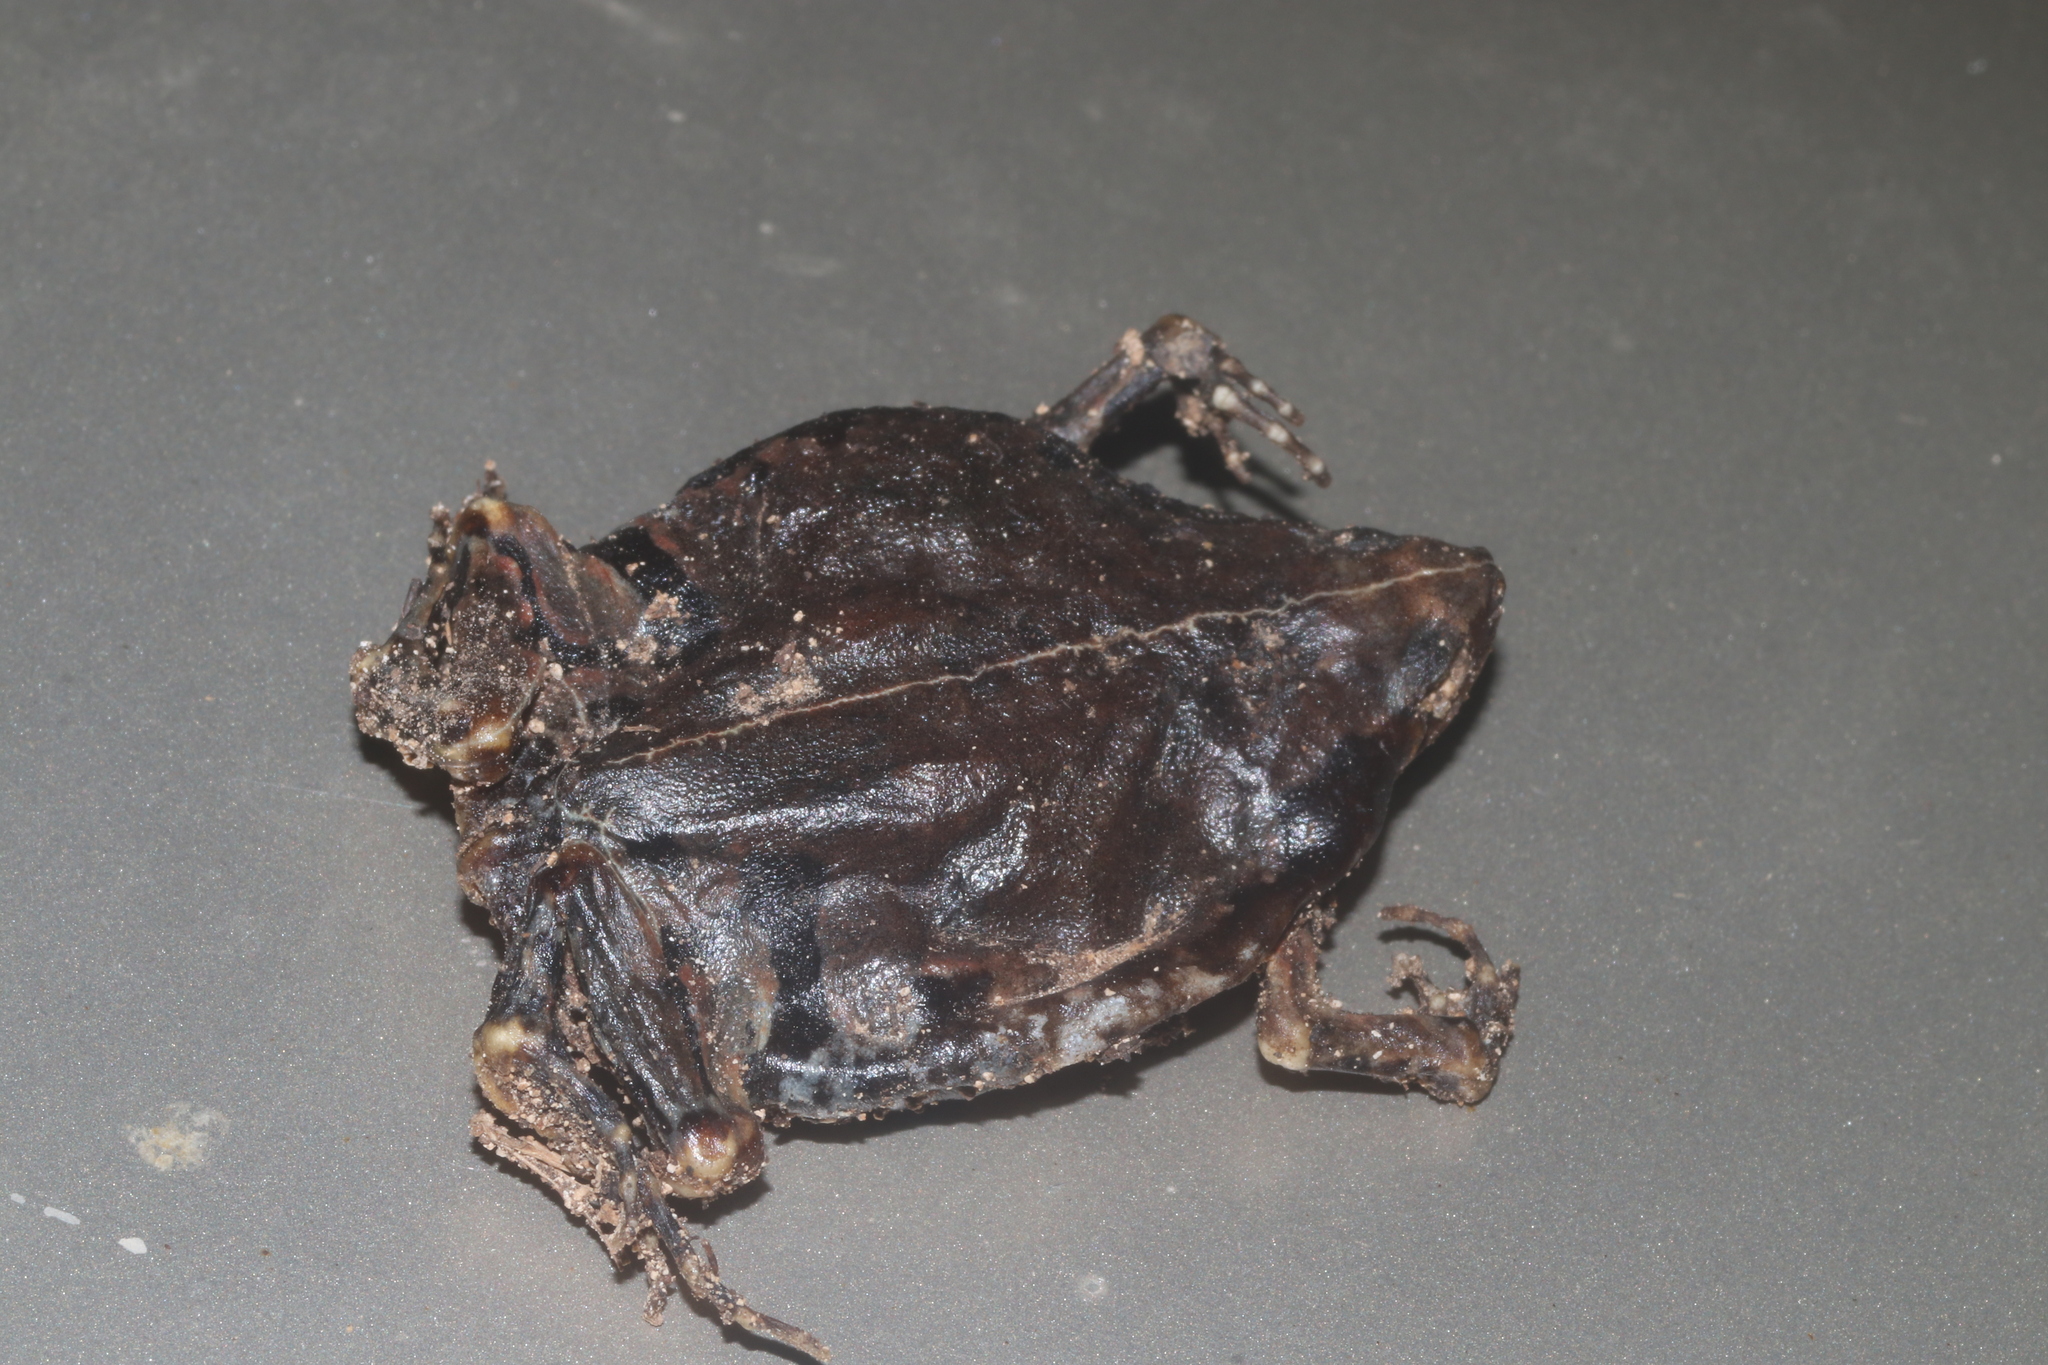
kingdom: Animalia
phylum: Chordata
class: Amphibia
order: Anura
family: Microhylidae
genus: Hypopachus
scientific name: Hypopachus variolosus
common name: Sheep frog
